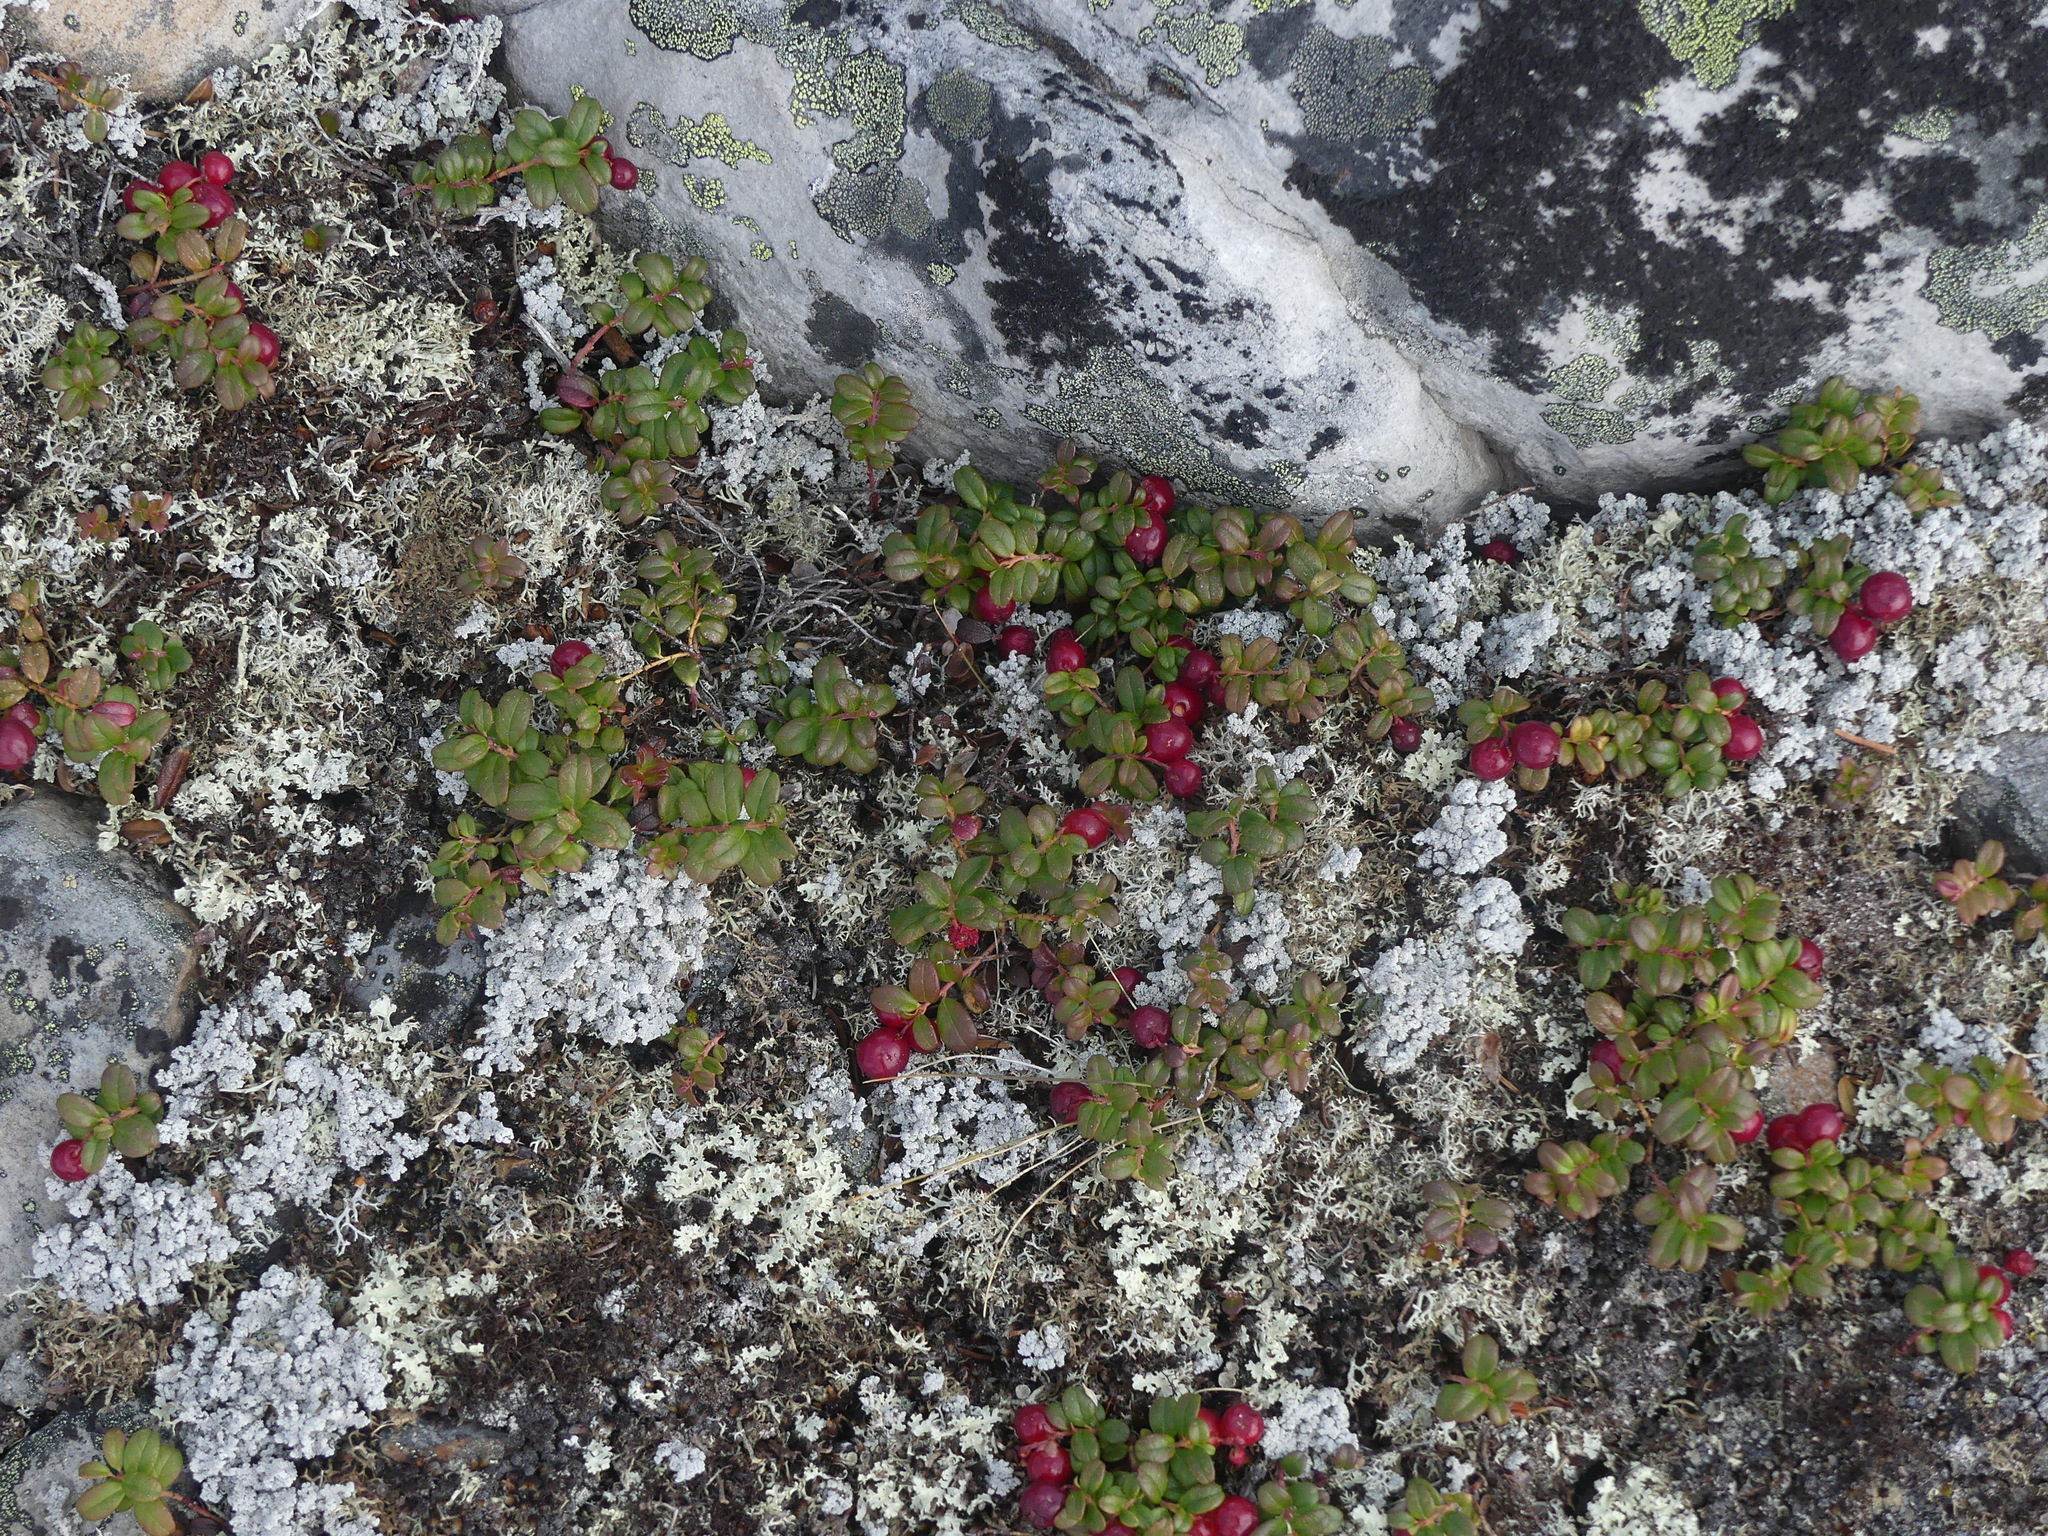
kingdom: Plantae
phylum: Tracheophyta
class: Magnoliopsida
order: Ericales
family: Ericaceae
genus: Vaccinium
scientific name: Vaccinium vitis-idaea
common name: Cowberry
